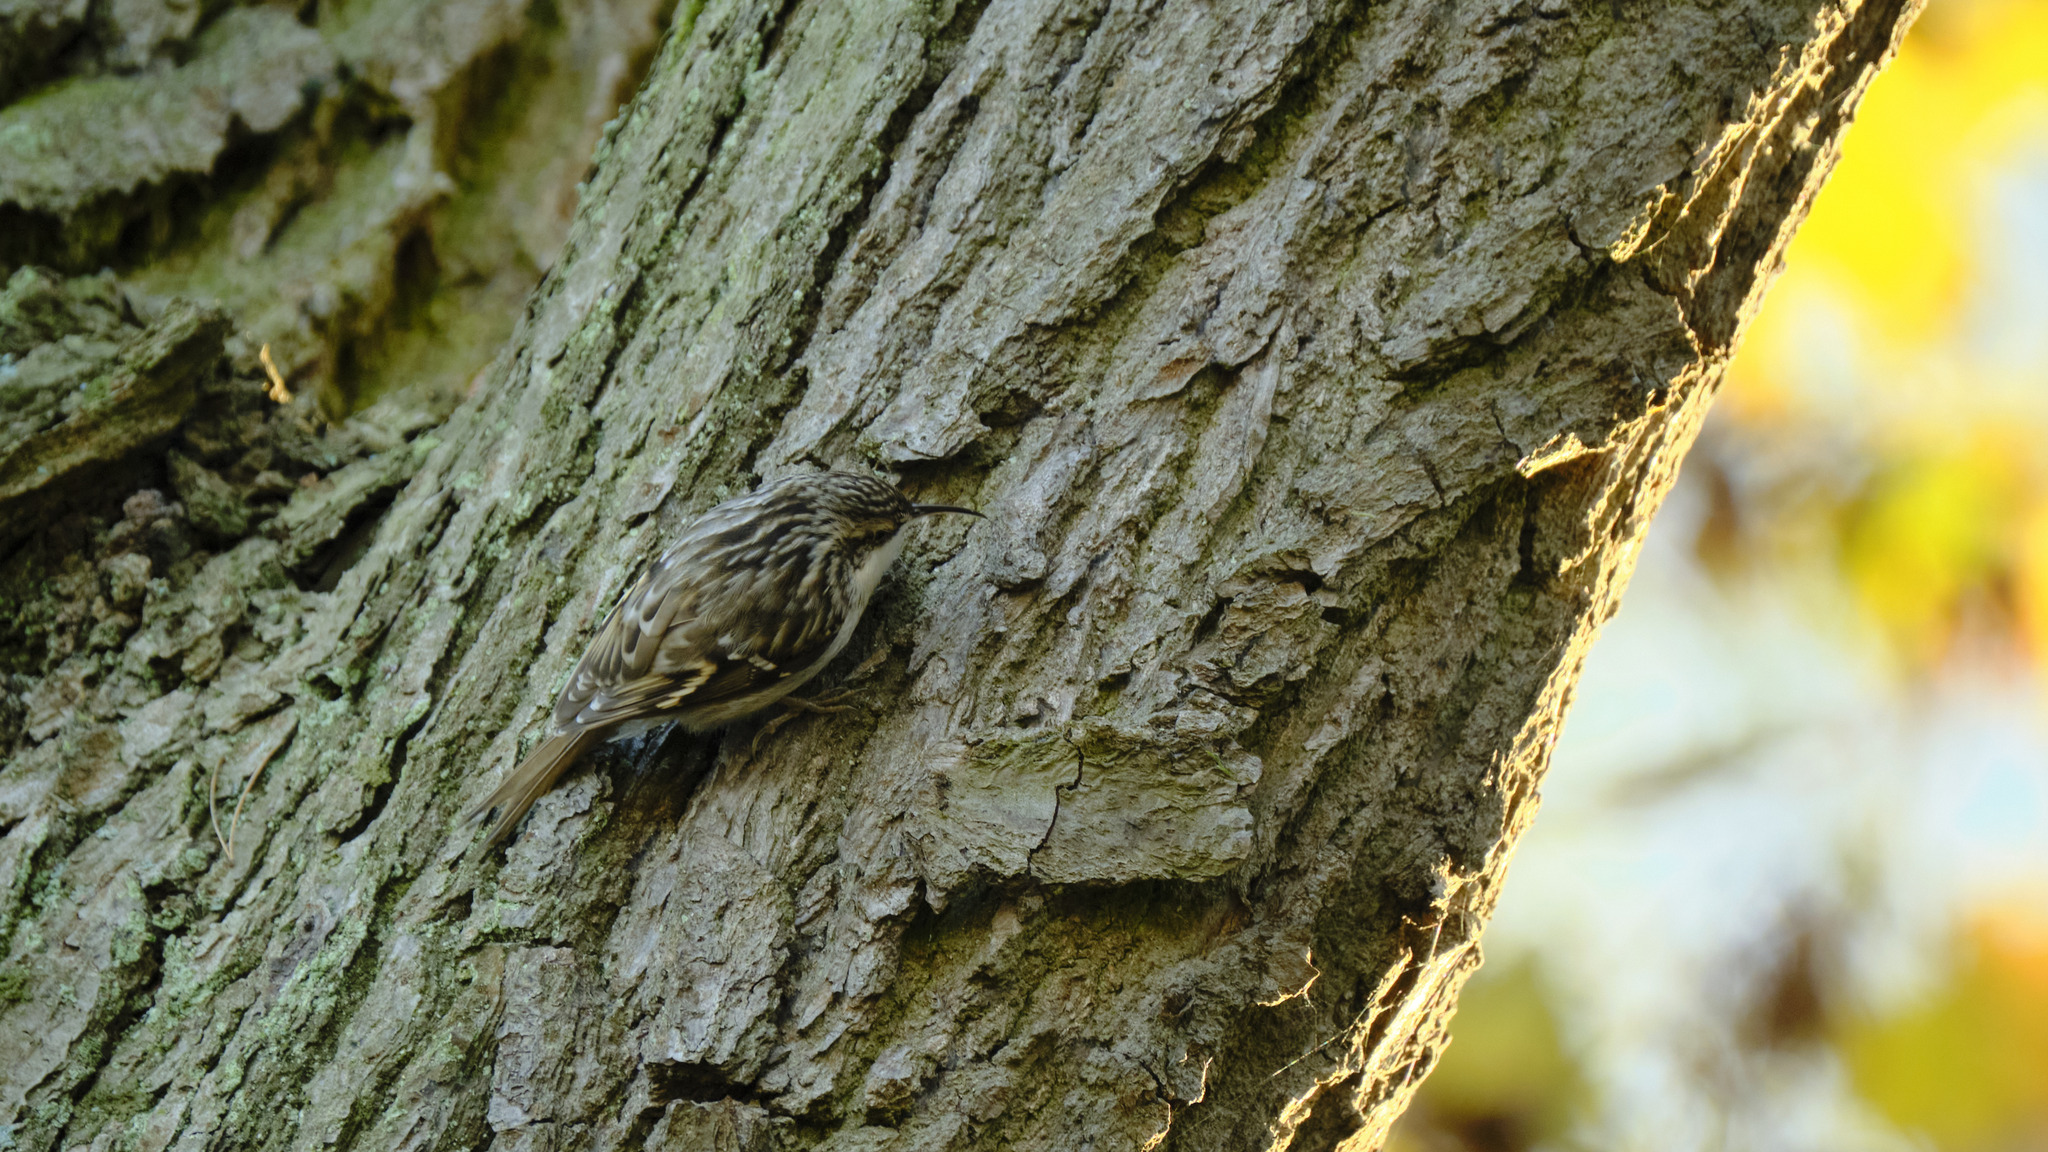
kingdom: Animalia
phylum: Chordata
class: Aves
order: Passeriformes
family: Certhiidae
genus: Certhia
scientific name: Certhia brachydactyla
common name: Short-toed treecreeper
